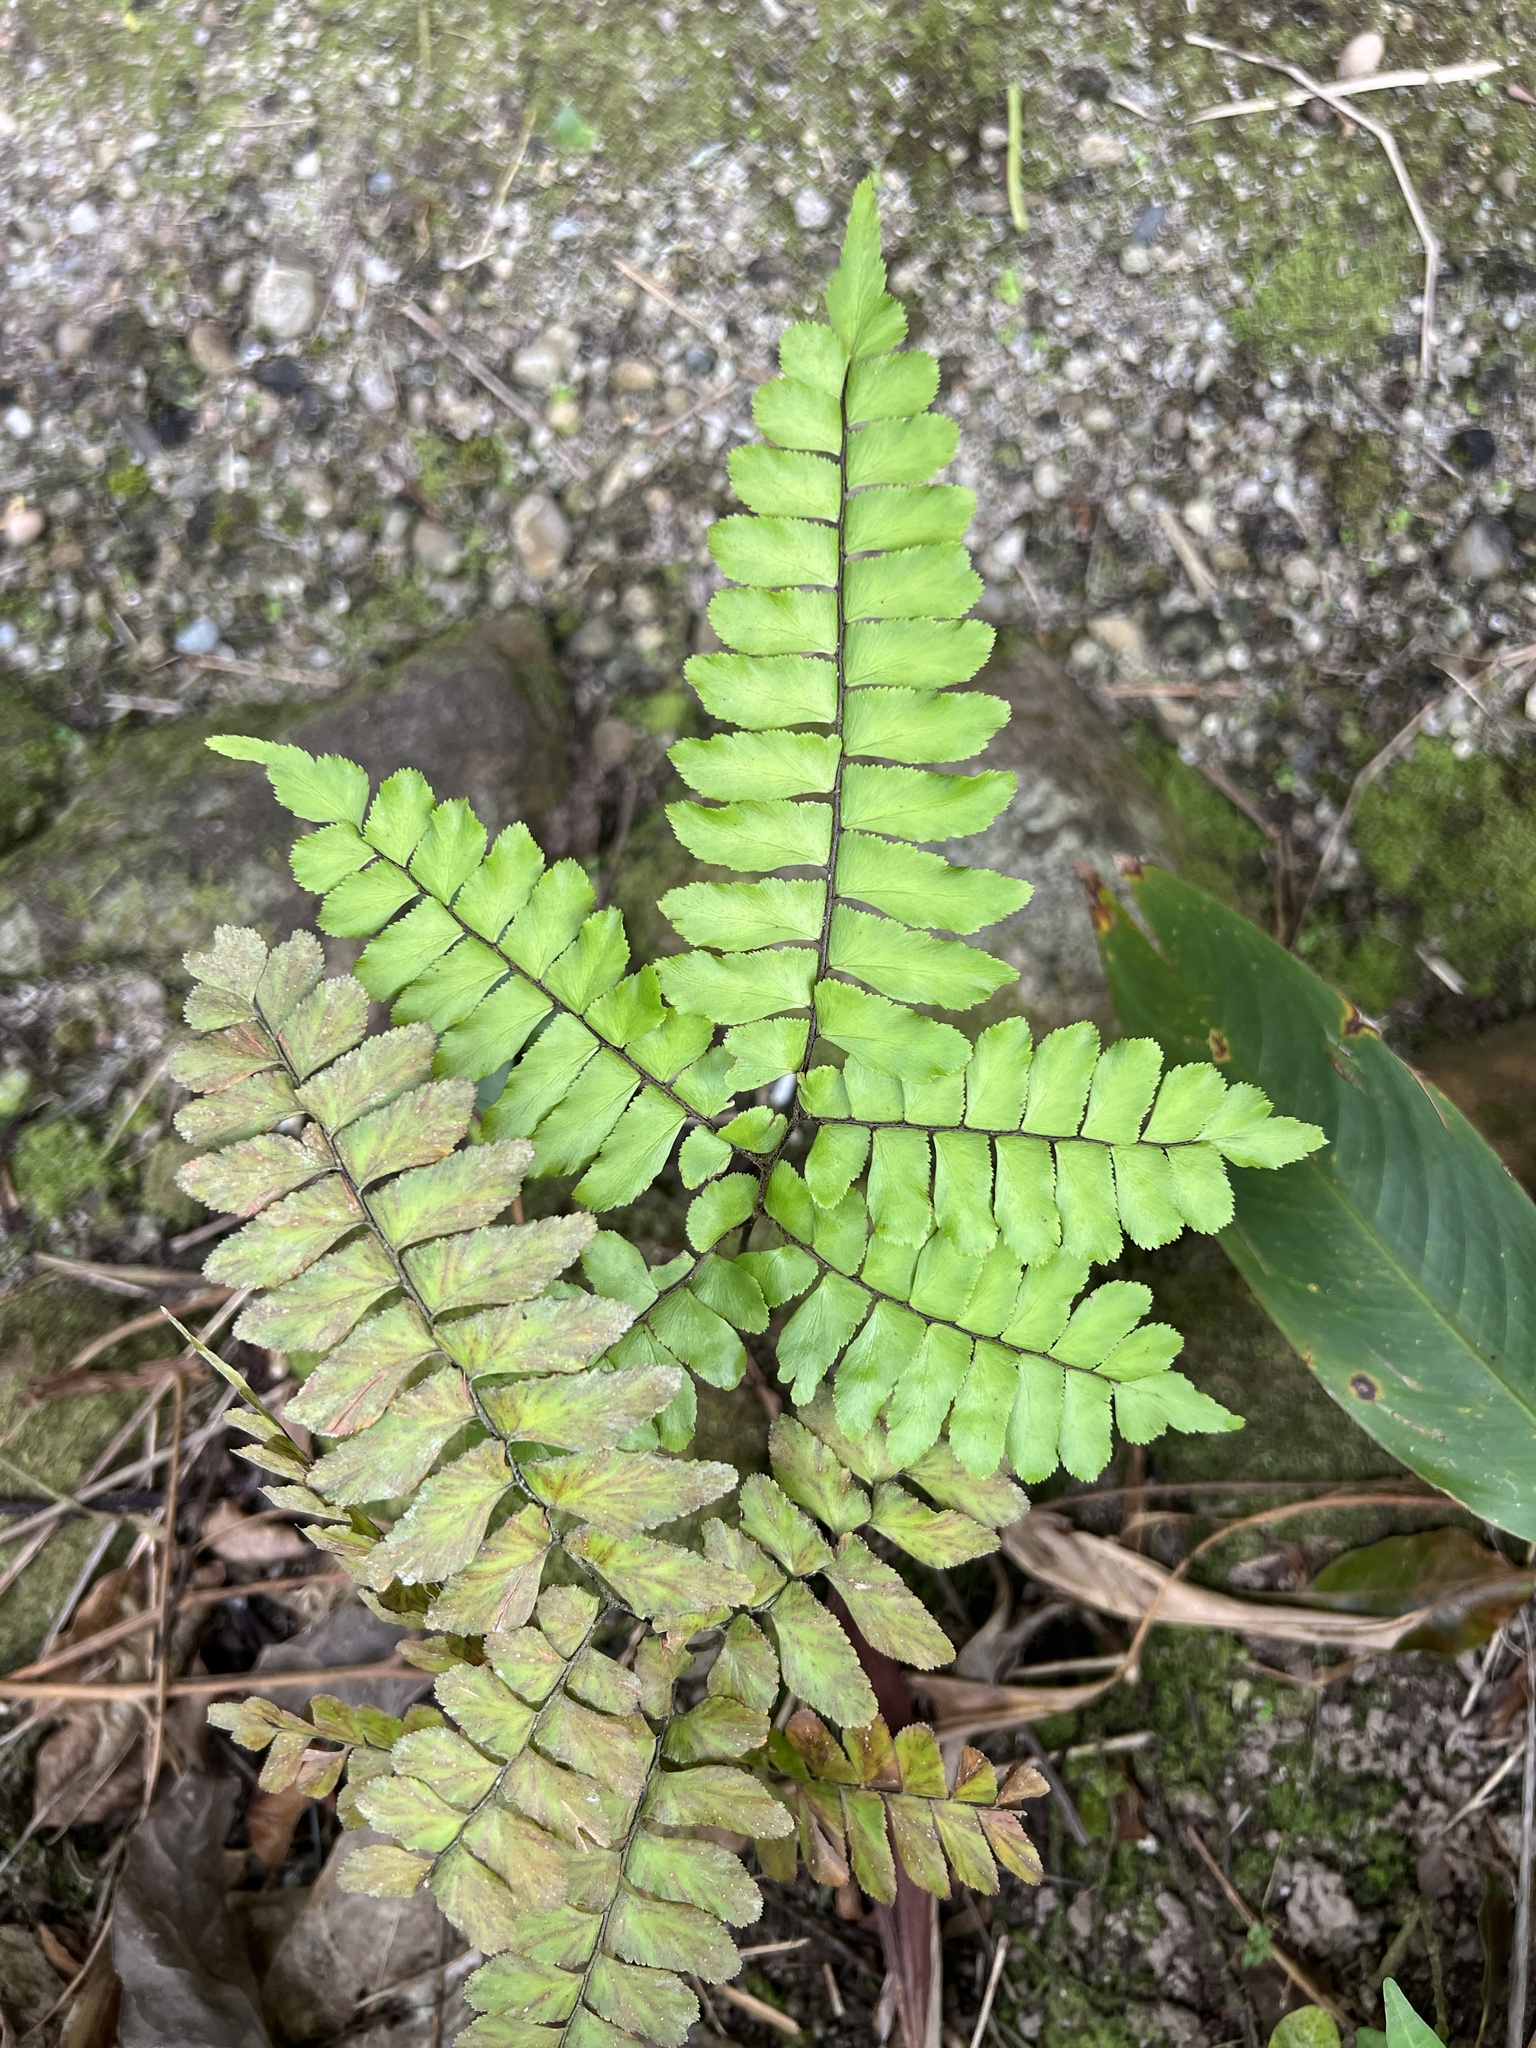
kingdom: Plantae
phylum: Tracheophyta
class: Polypodiopsida
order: Polypodiales
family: Pteridaceae
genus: Adiantum
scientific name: Adiantum latifolium
